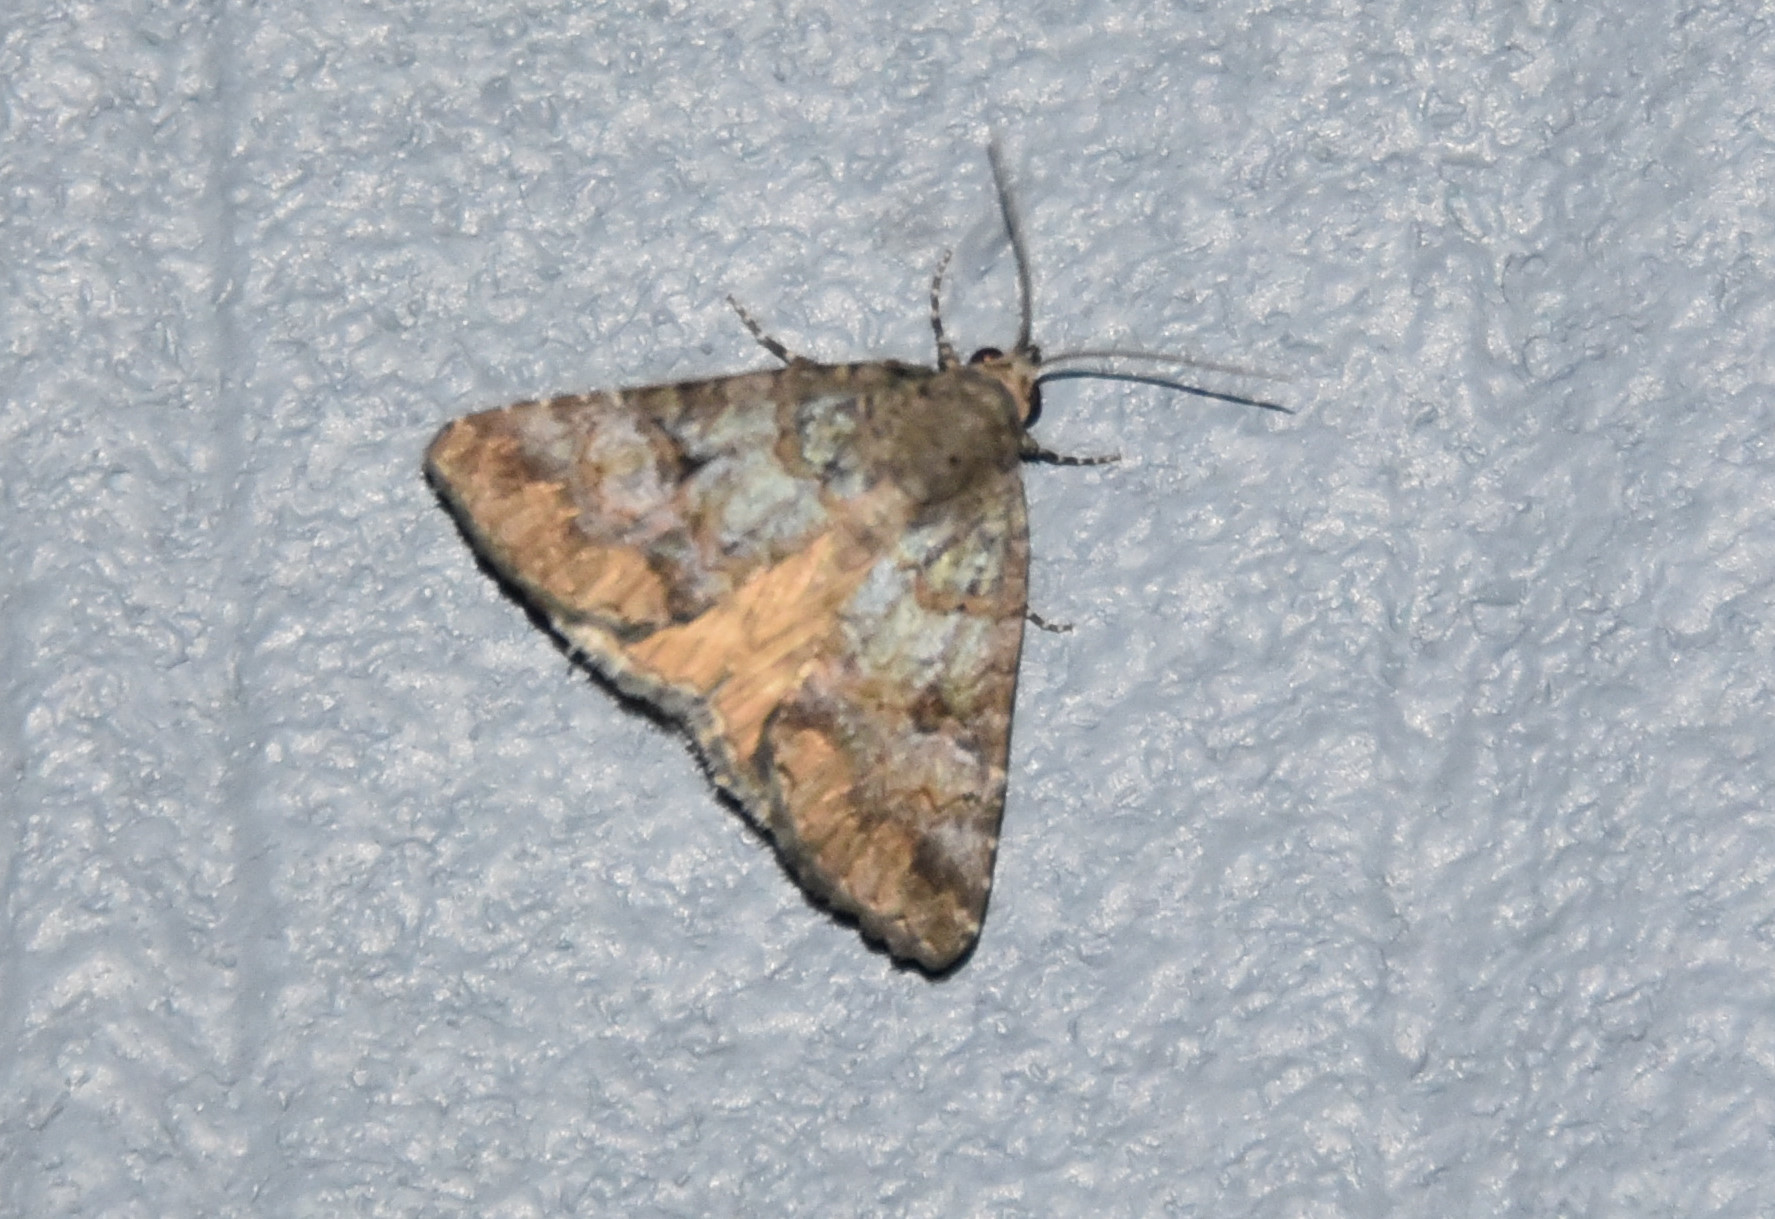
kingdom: Animalia
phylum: Arthropoda
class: Insecta
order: Lepidoptera
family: Erebidae
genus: Eubolina
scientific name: Eubolina impartialis
